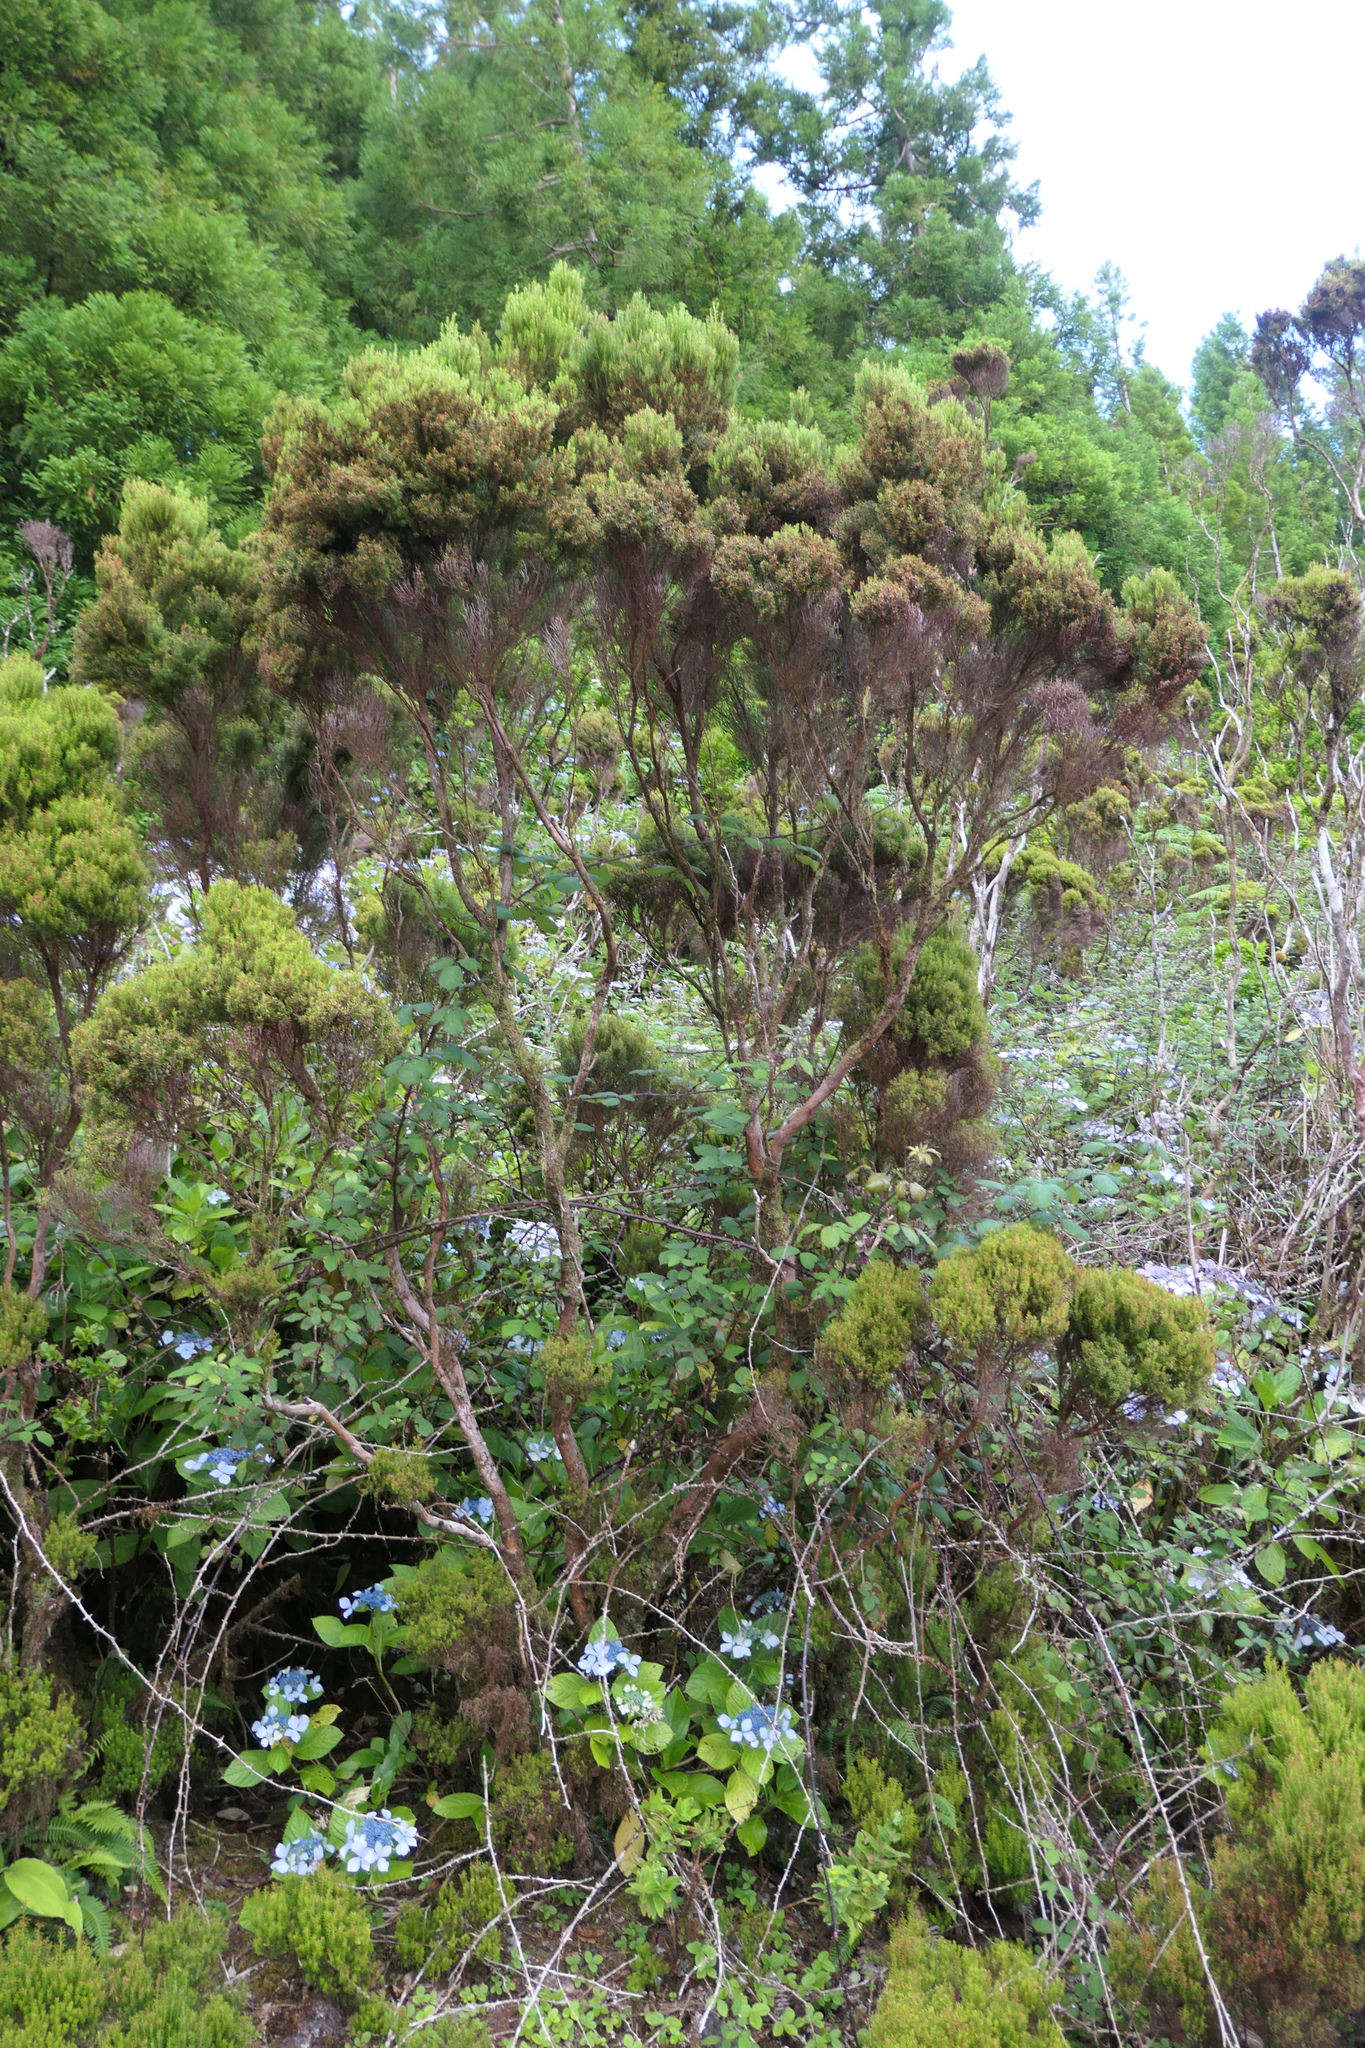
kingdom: Plantae
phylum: Tracheophyta
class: Magnoliopsida
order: Ericales
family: Ericaceae
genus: Erica
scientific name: Erica azorica
